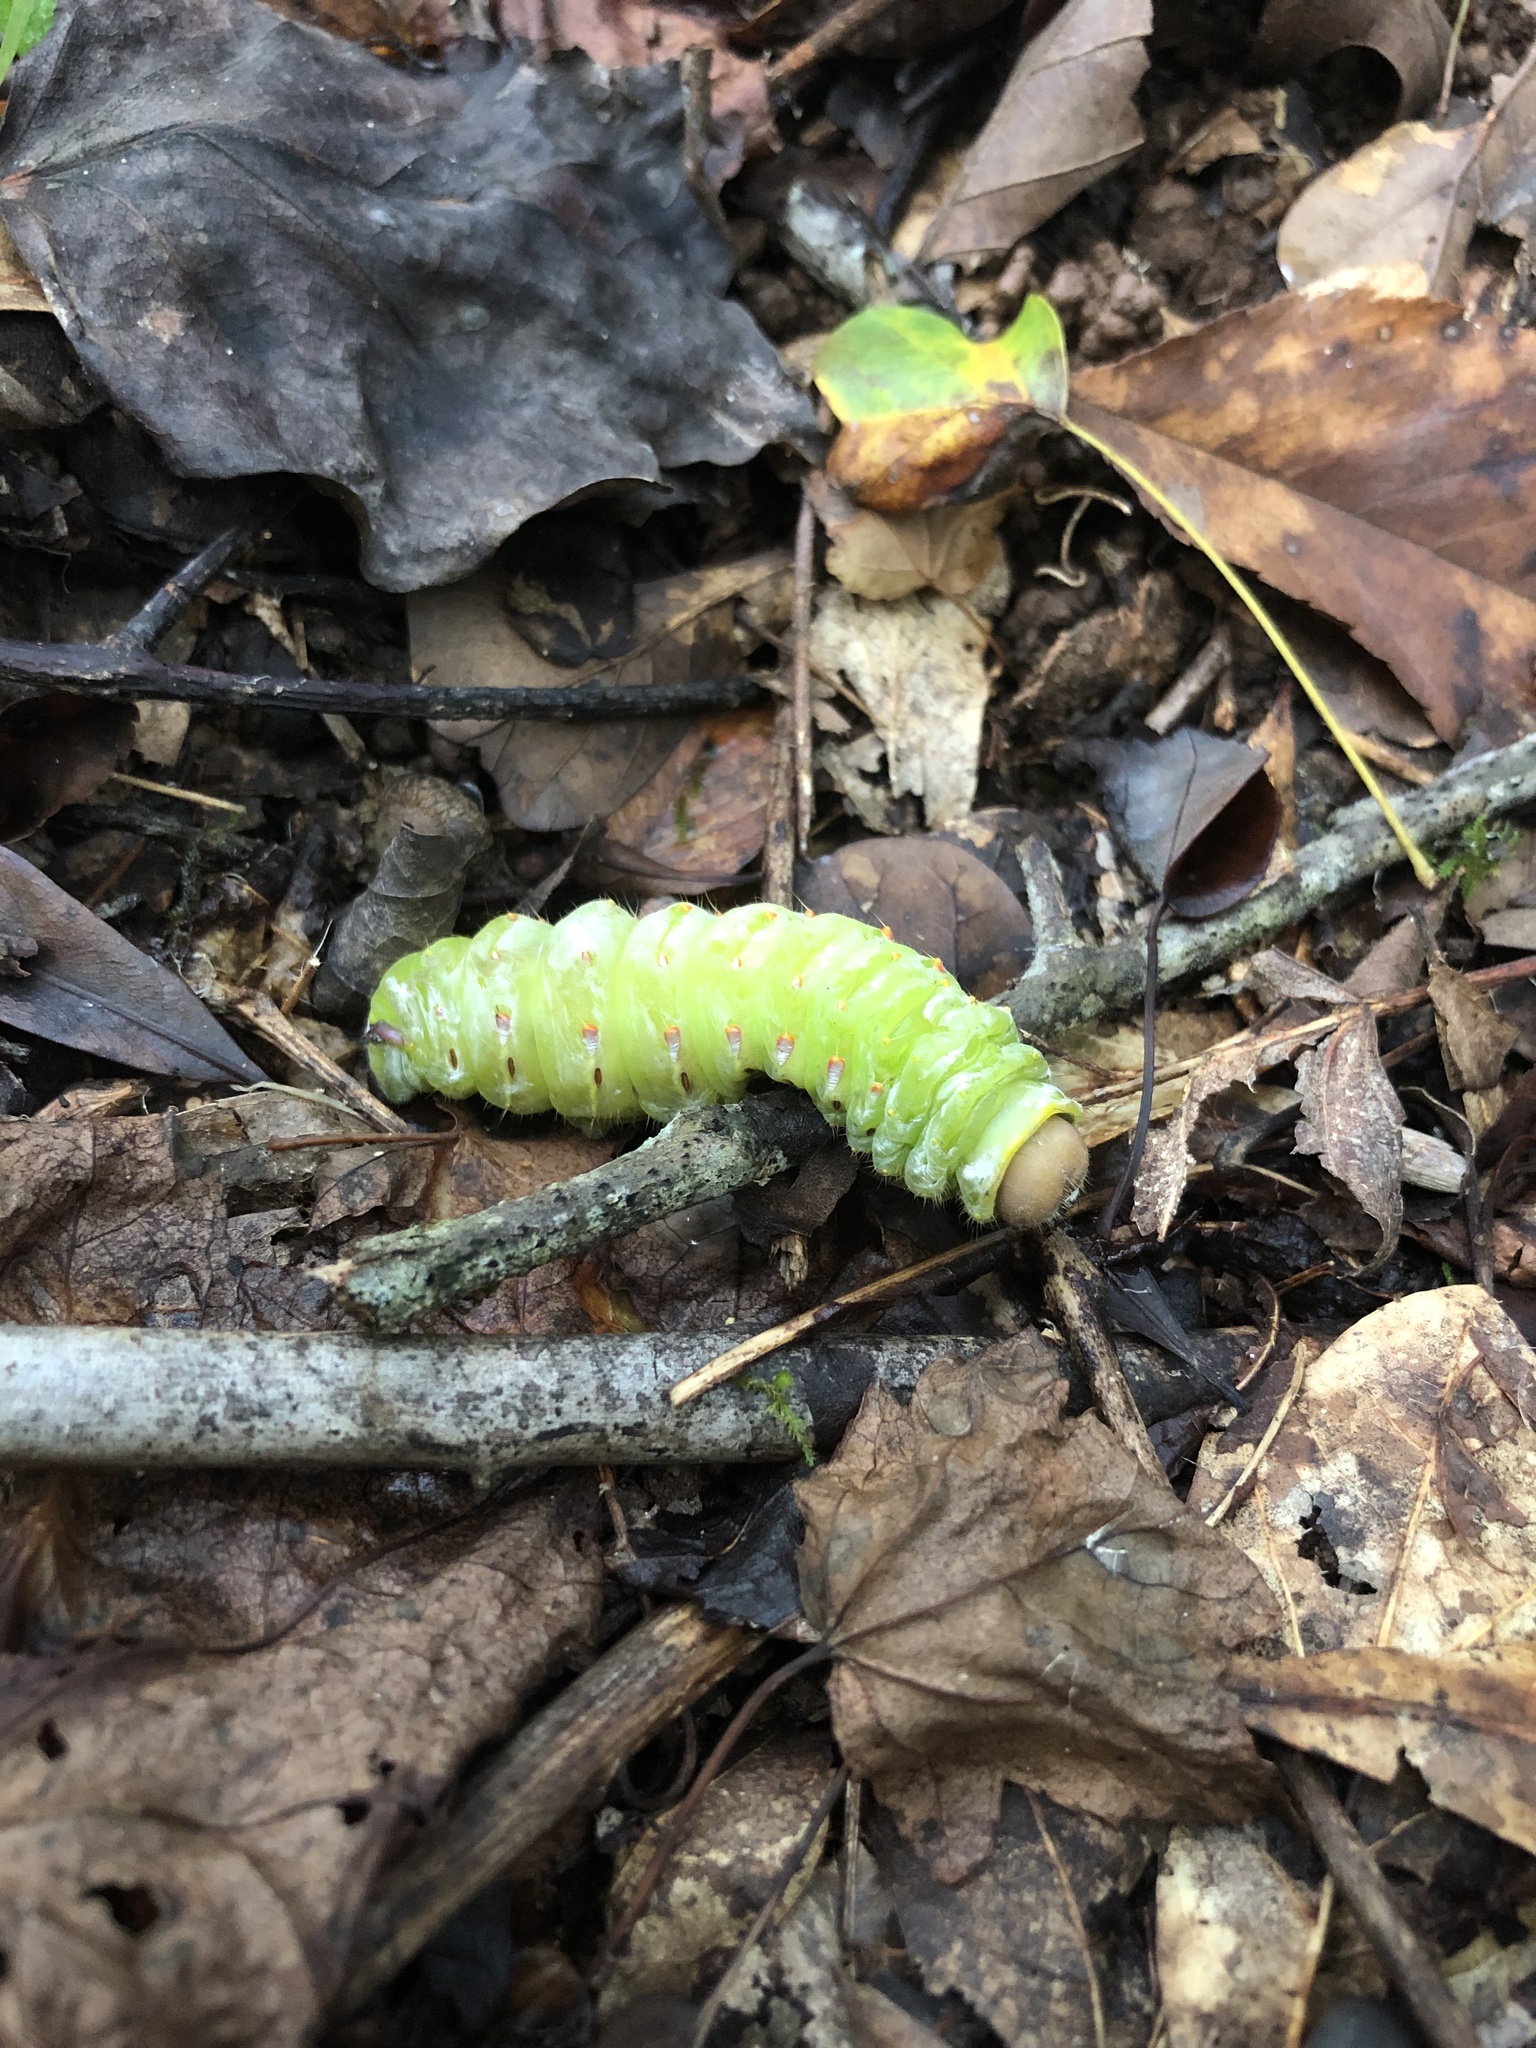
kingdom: Animalia
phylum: Arthropoda
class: Insecta
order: Lepidoptera
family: Saturniidae
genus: Antheraea
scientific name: Antheraea polyphemus
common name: Polyphemus moth
